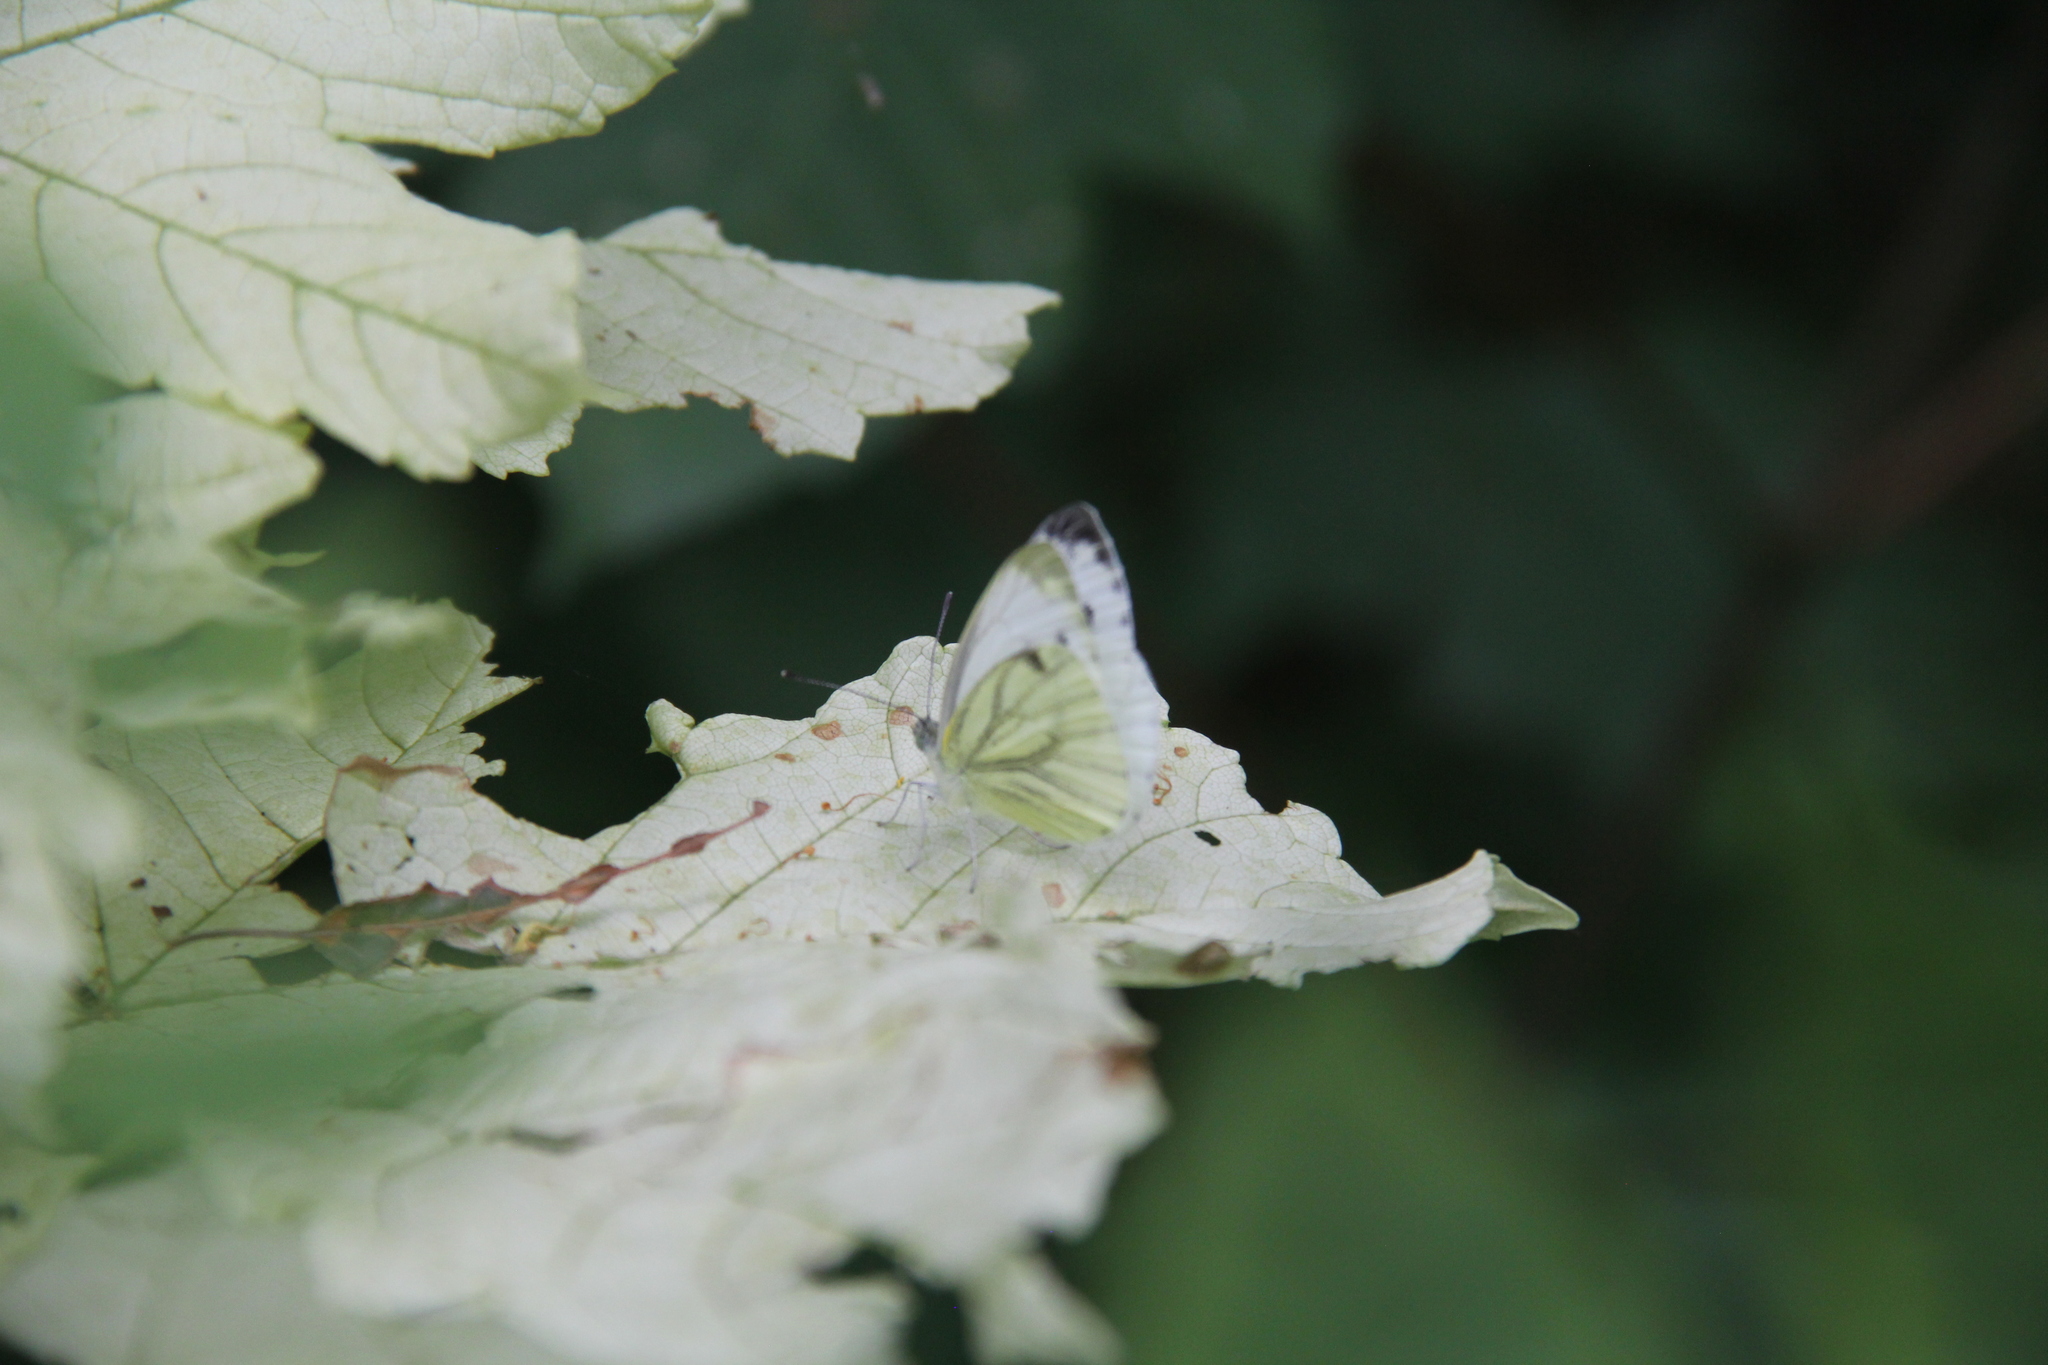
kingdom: Animalia
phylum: Arthropoda
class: Insecta
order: Lepidoptera
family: Pieridae
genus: Pieris
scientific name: Pieris napi
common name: Green-veined white
